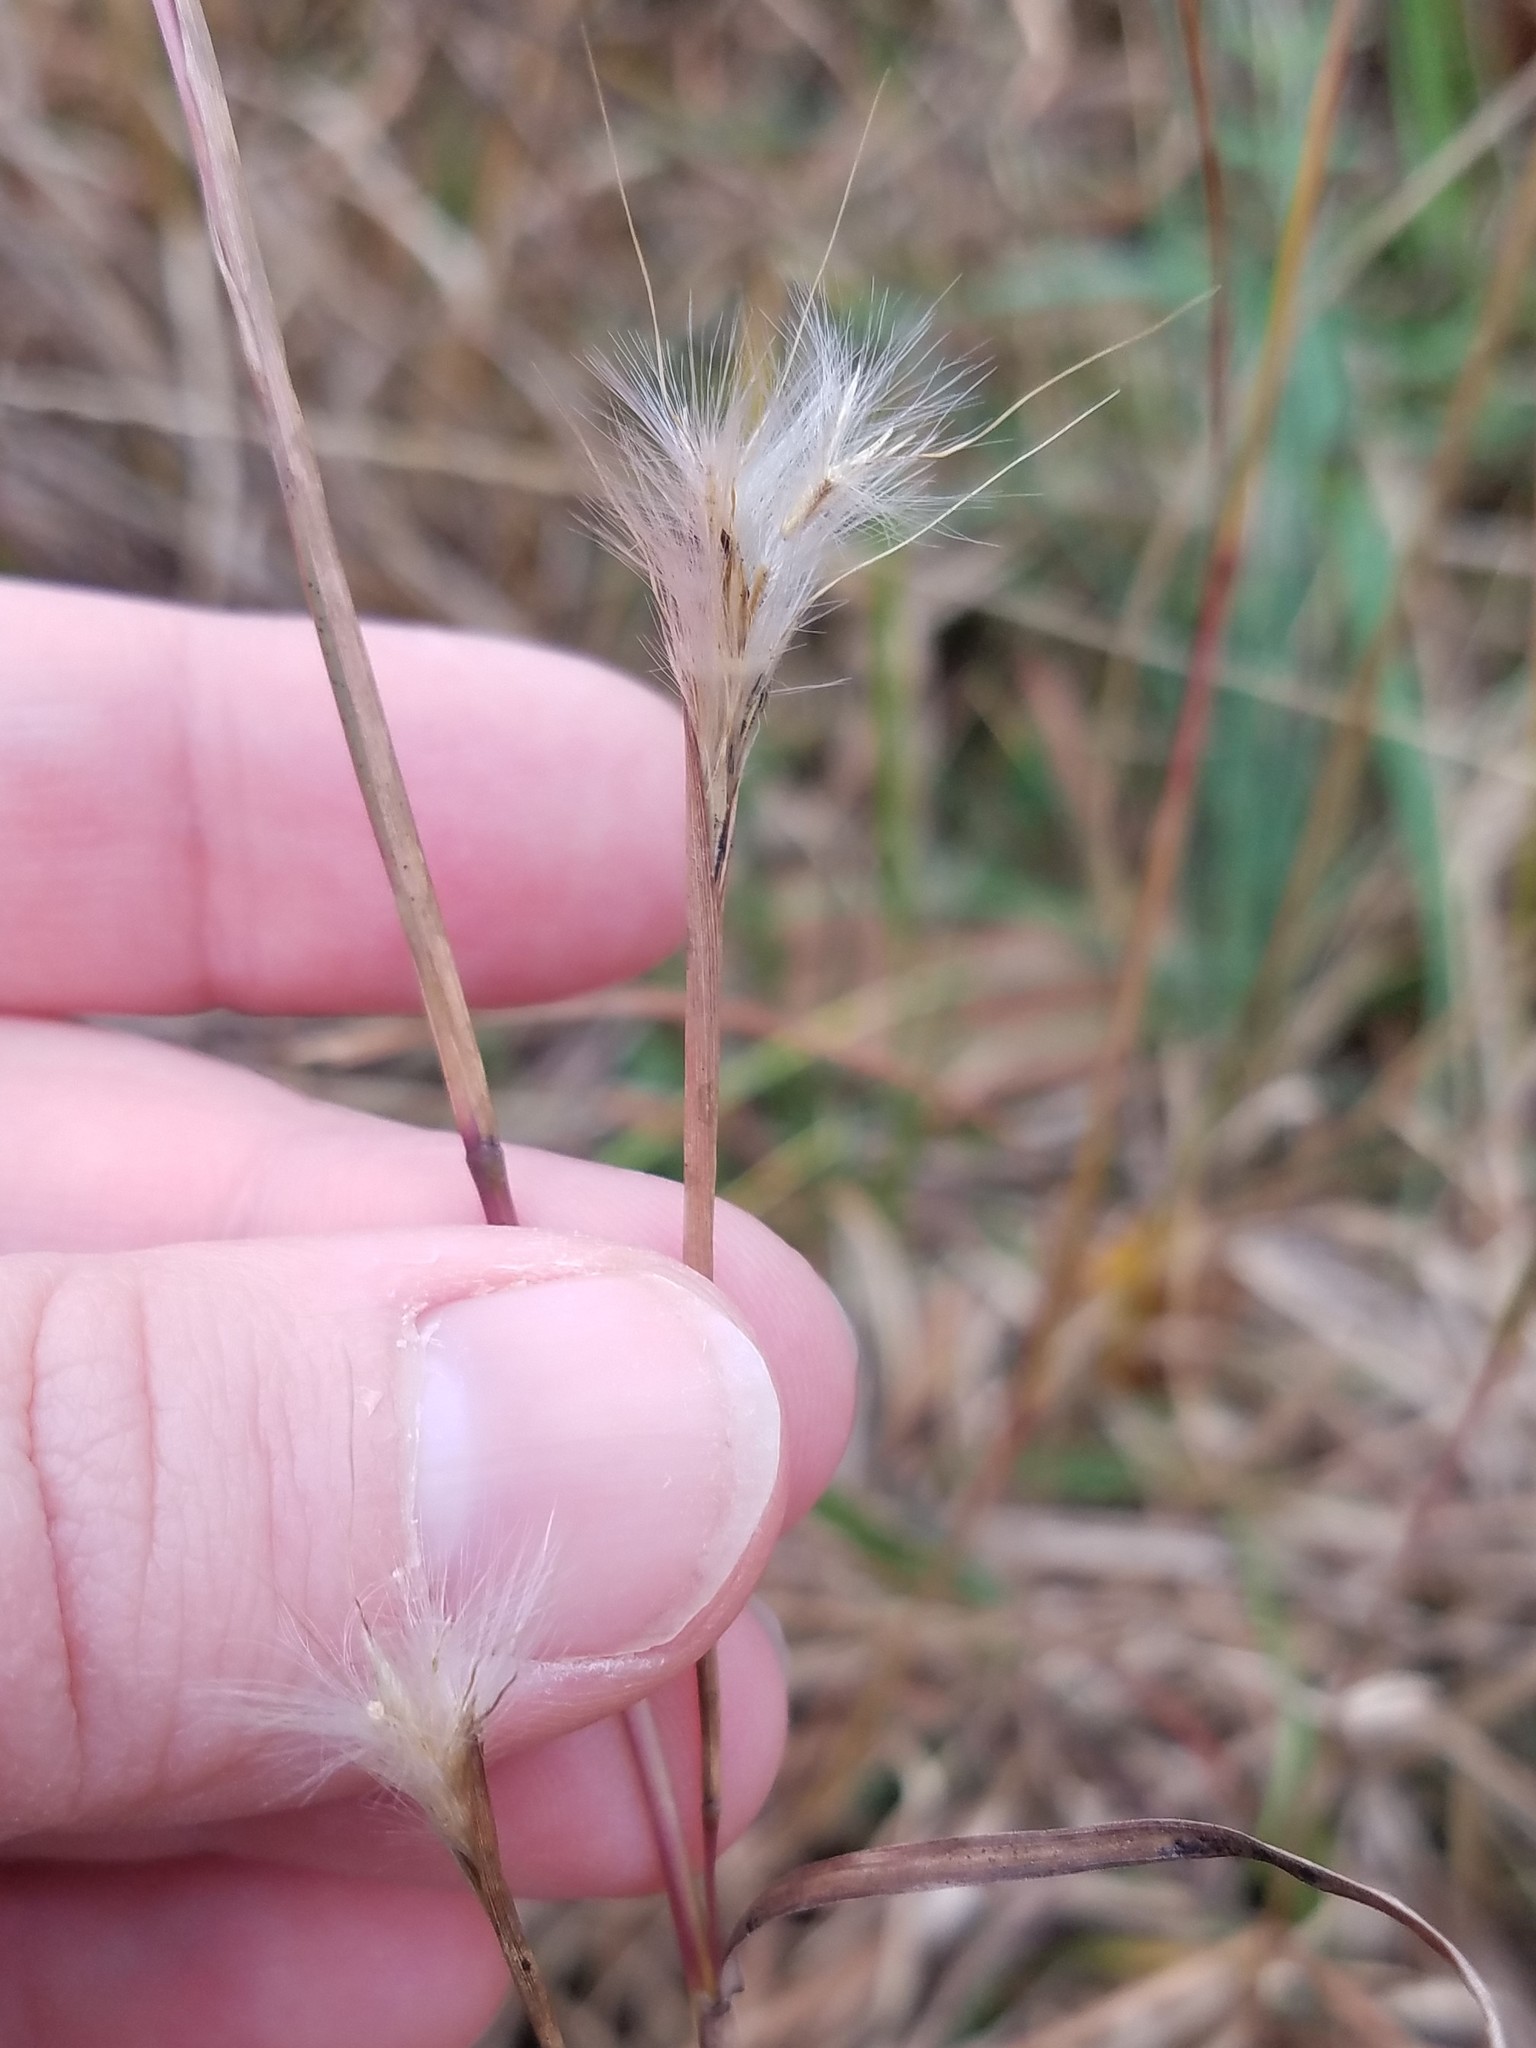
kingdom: Plantae
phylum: Tracheophyta
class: Liliopsida
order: Poales
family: Poaceae
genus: Andropogon
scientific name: Andropogon virginicus
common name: Broomsedge bluestem
